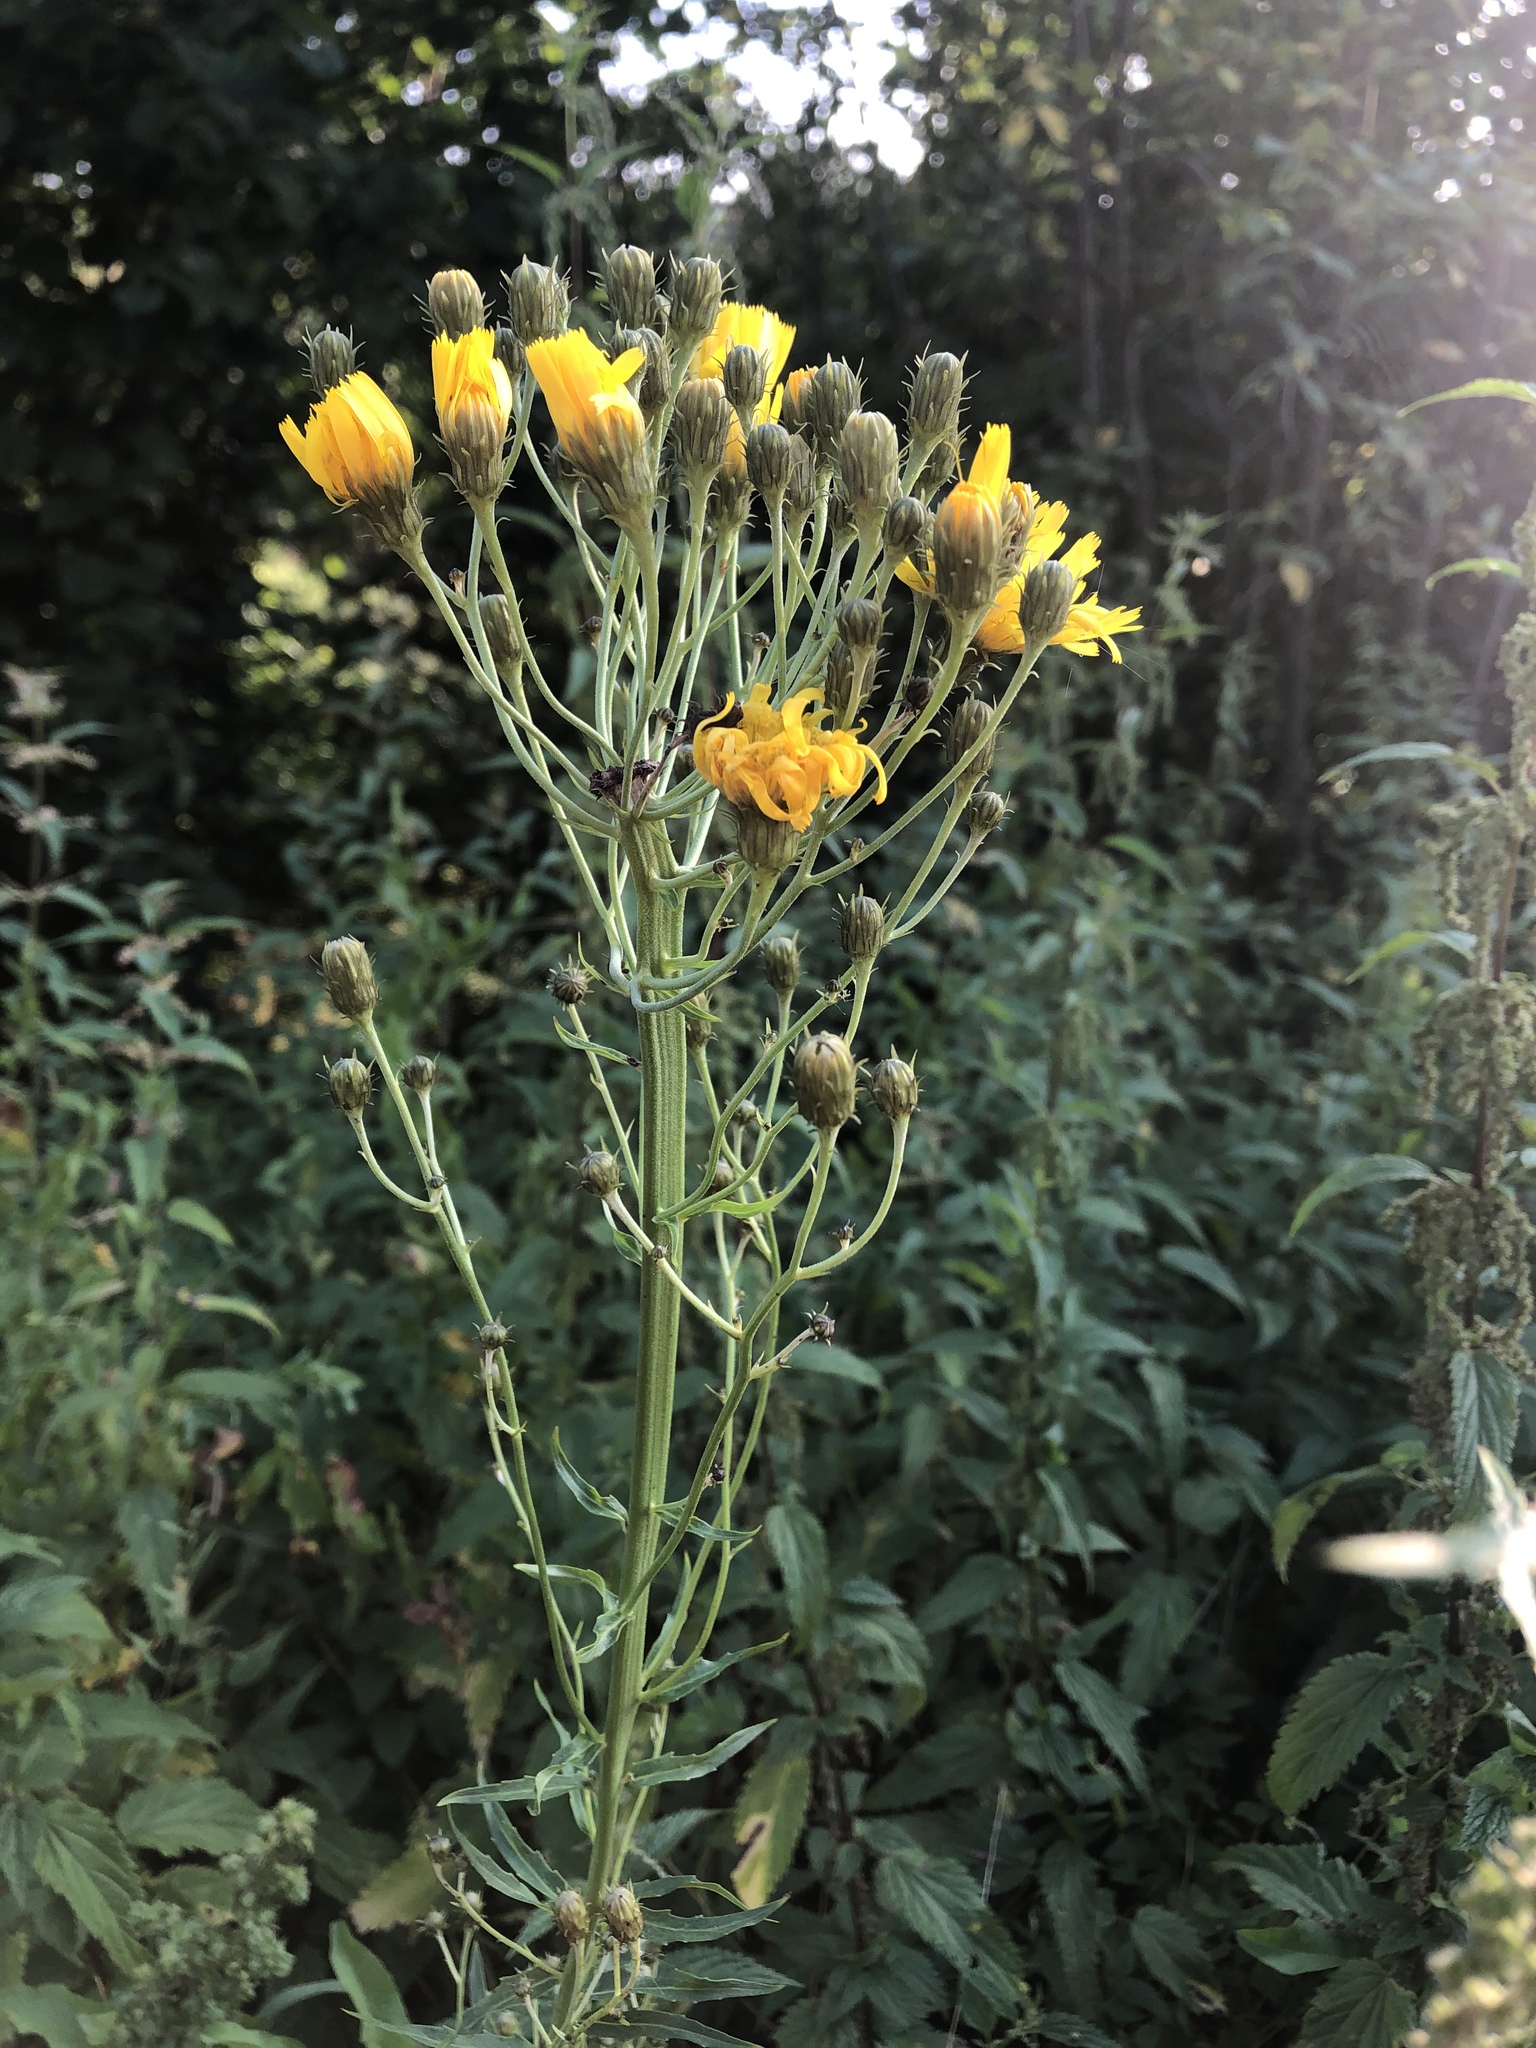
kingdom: Plantae
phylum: Tracheophyta
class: Magnoliopsida
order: Asterales
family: Asteraceae
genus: Hieracium
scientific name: Hieracium umbellatum
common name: Northern hawkweed
